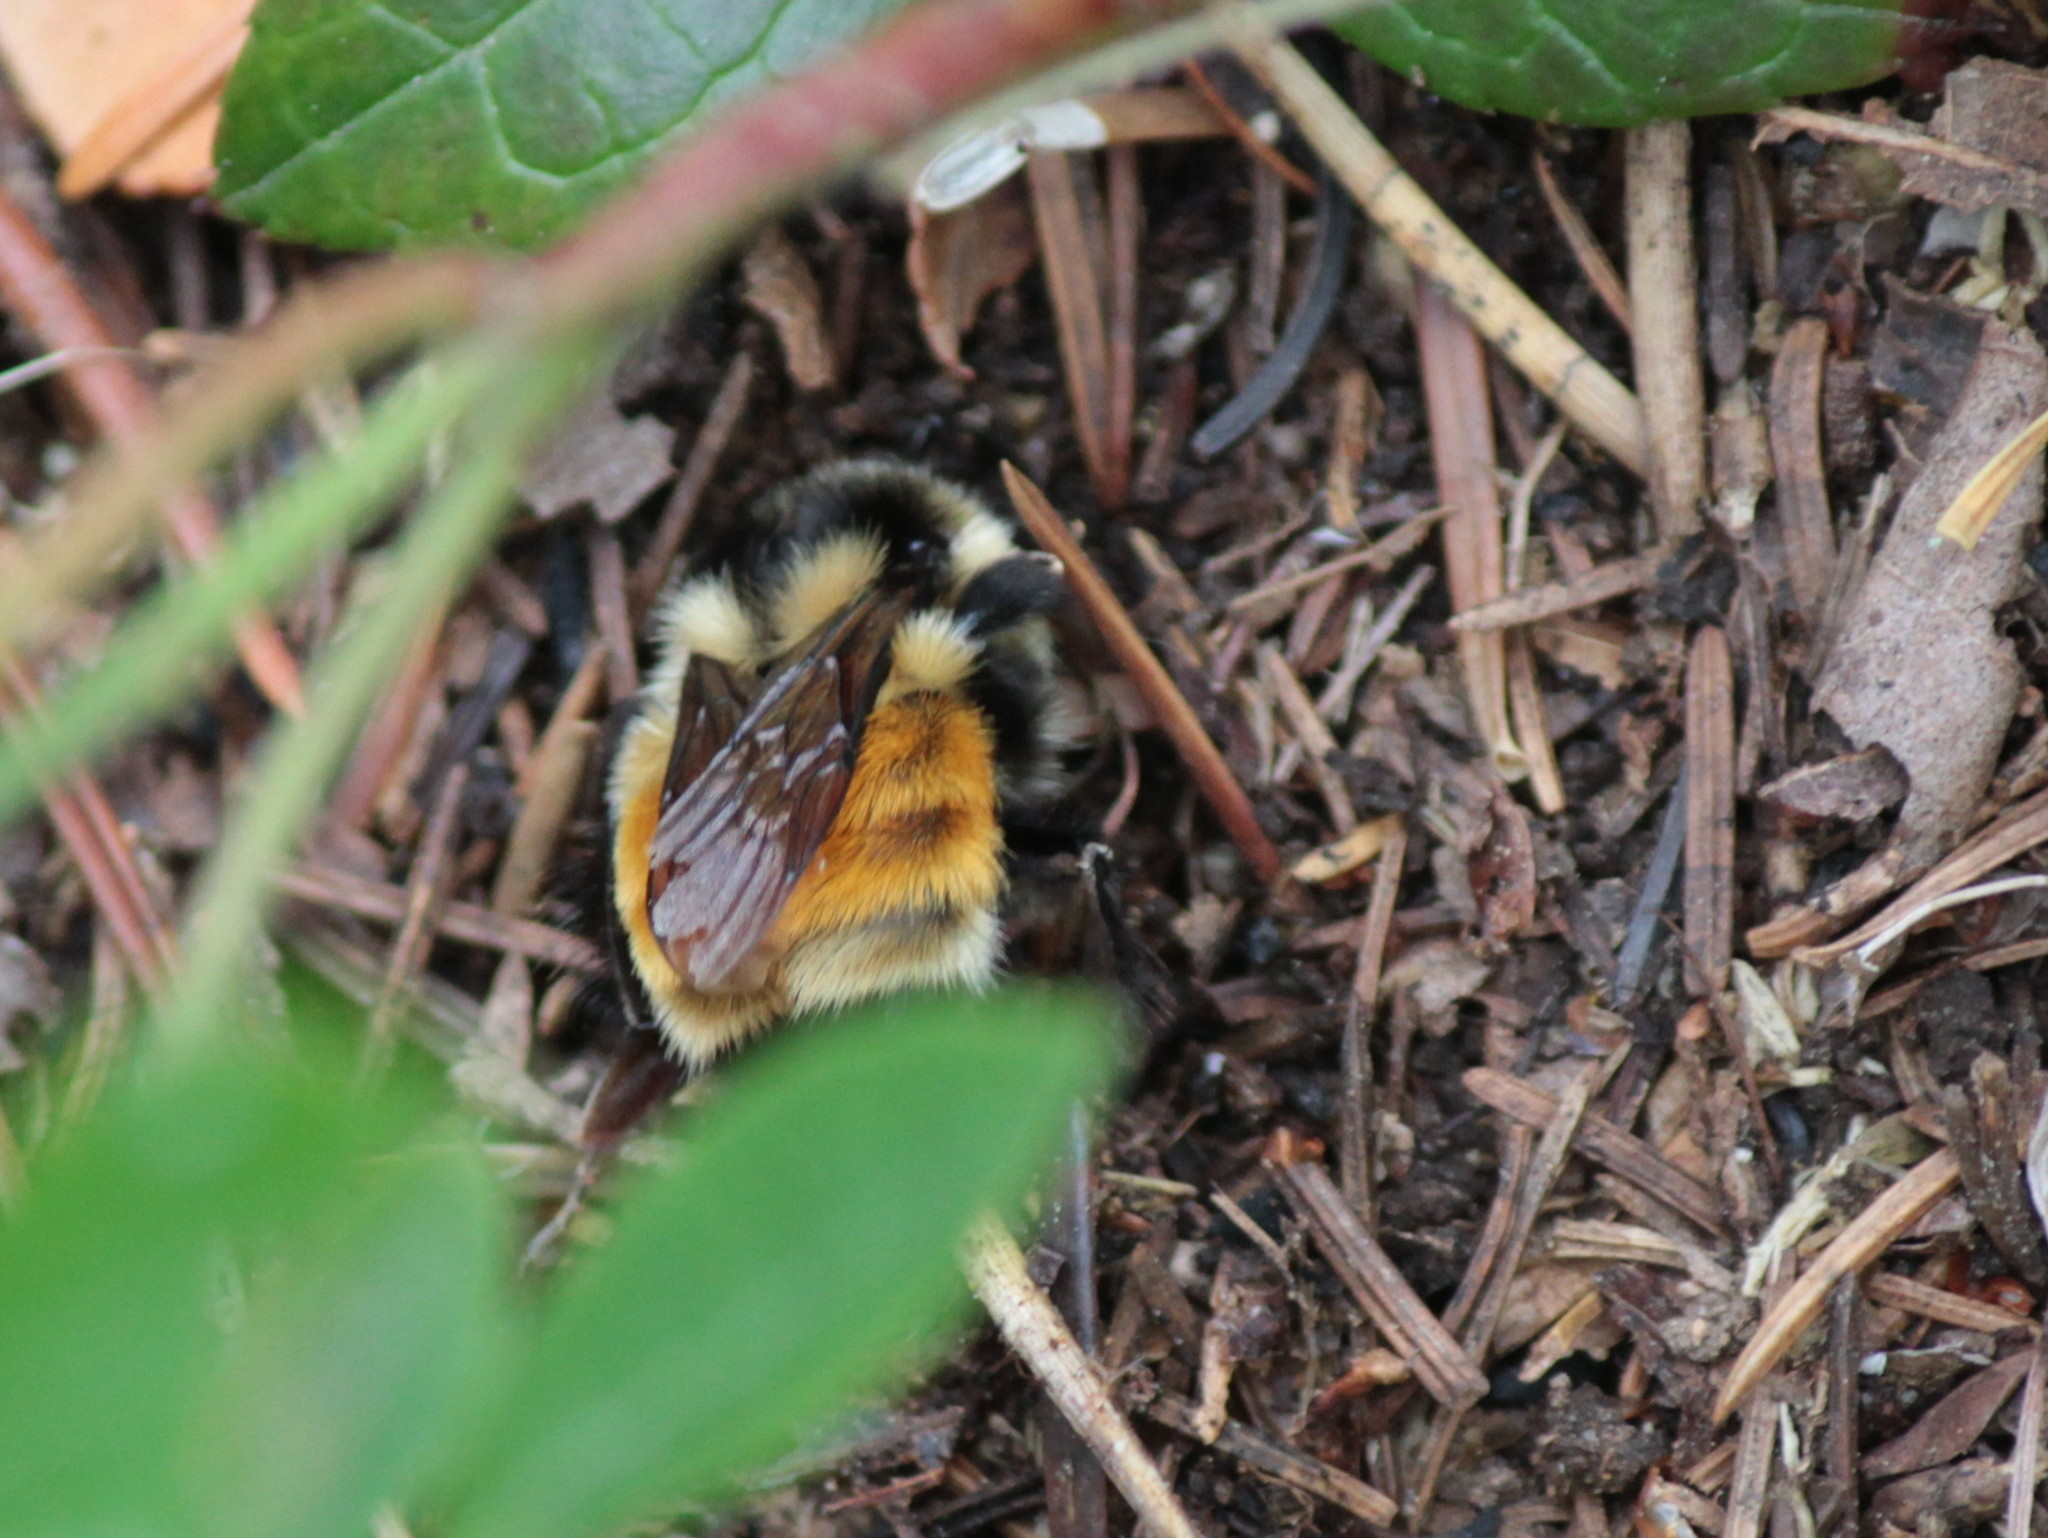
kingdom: Animalia
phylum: Arthropoda
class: Insecta
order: Hymenoptera
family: Apidae
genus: Bombus
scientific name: Bombus ternarius
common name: Tri-colored bumble bee
